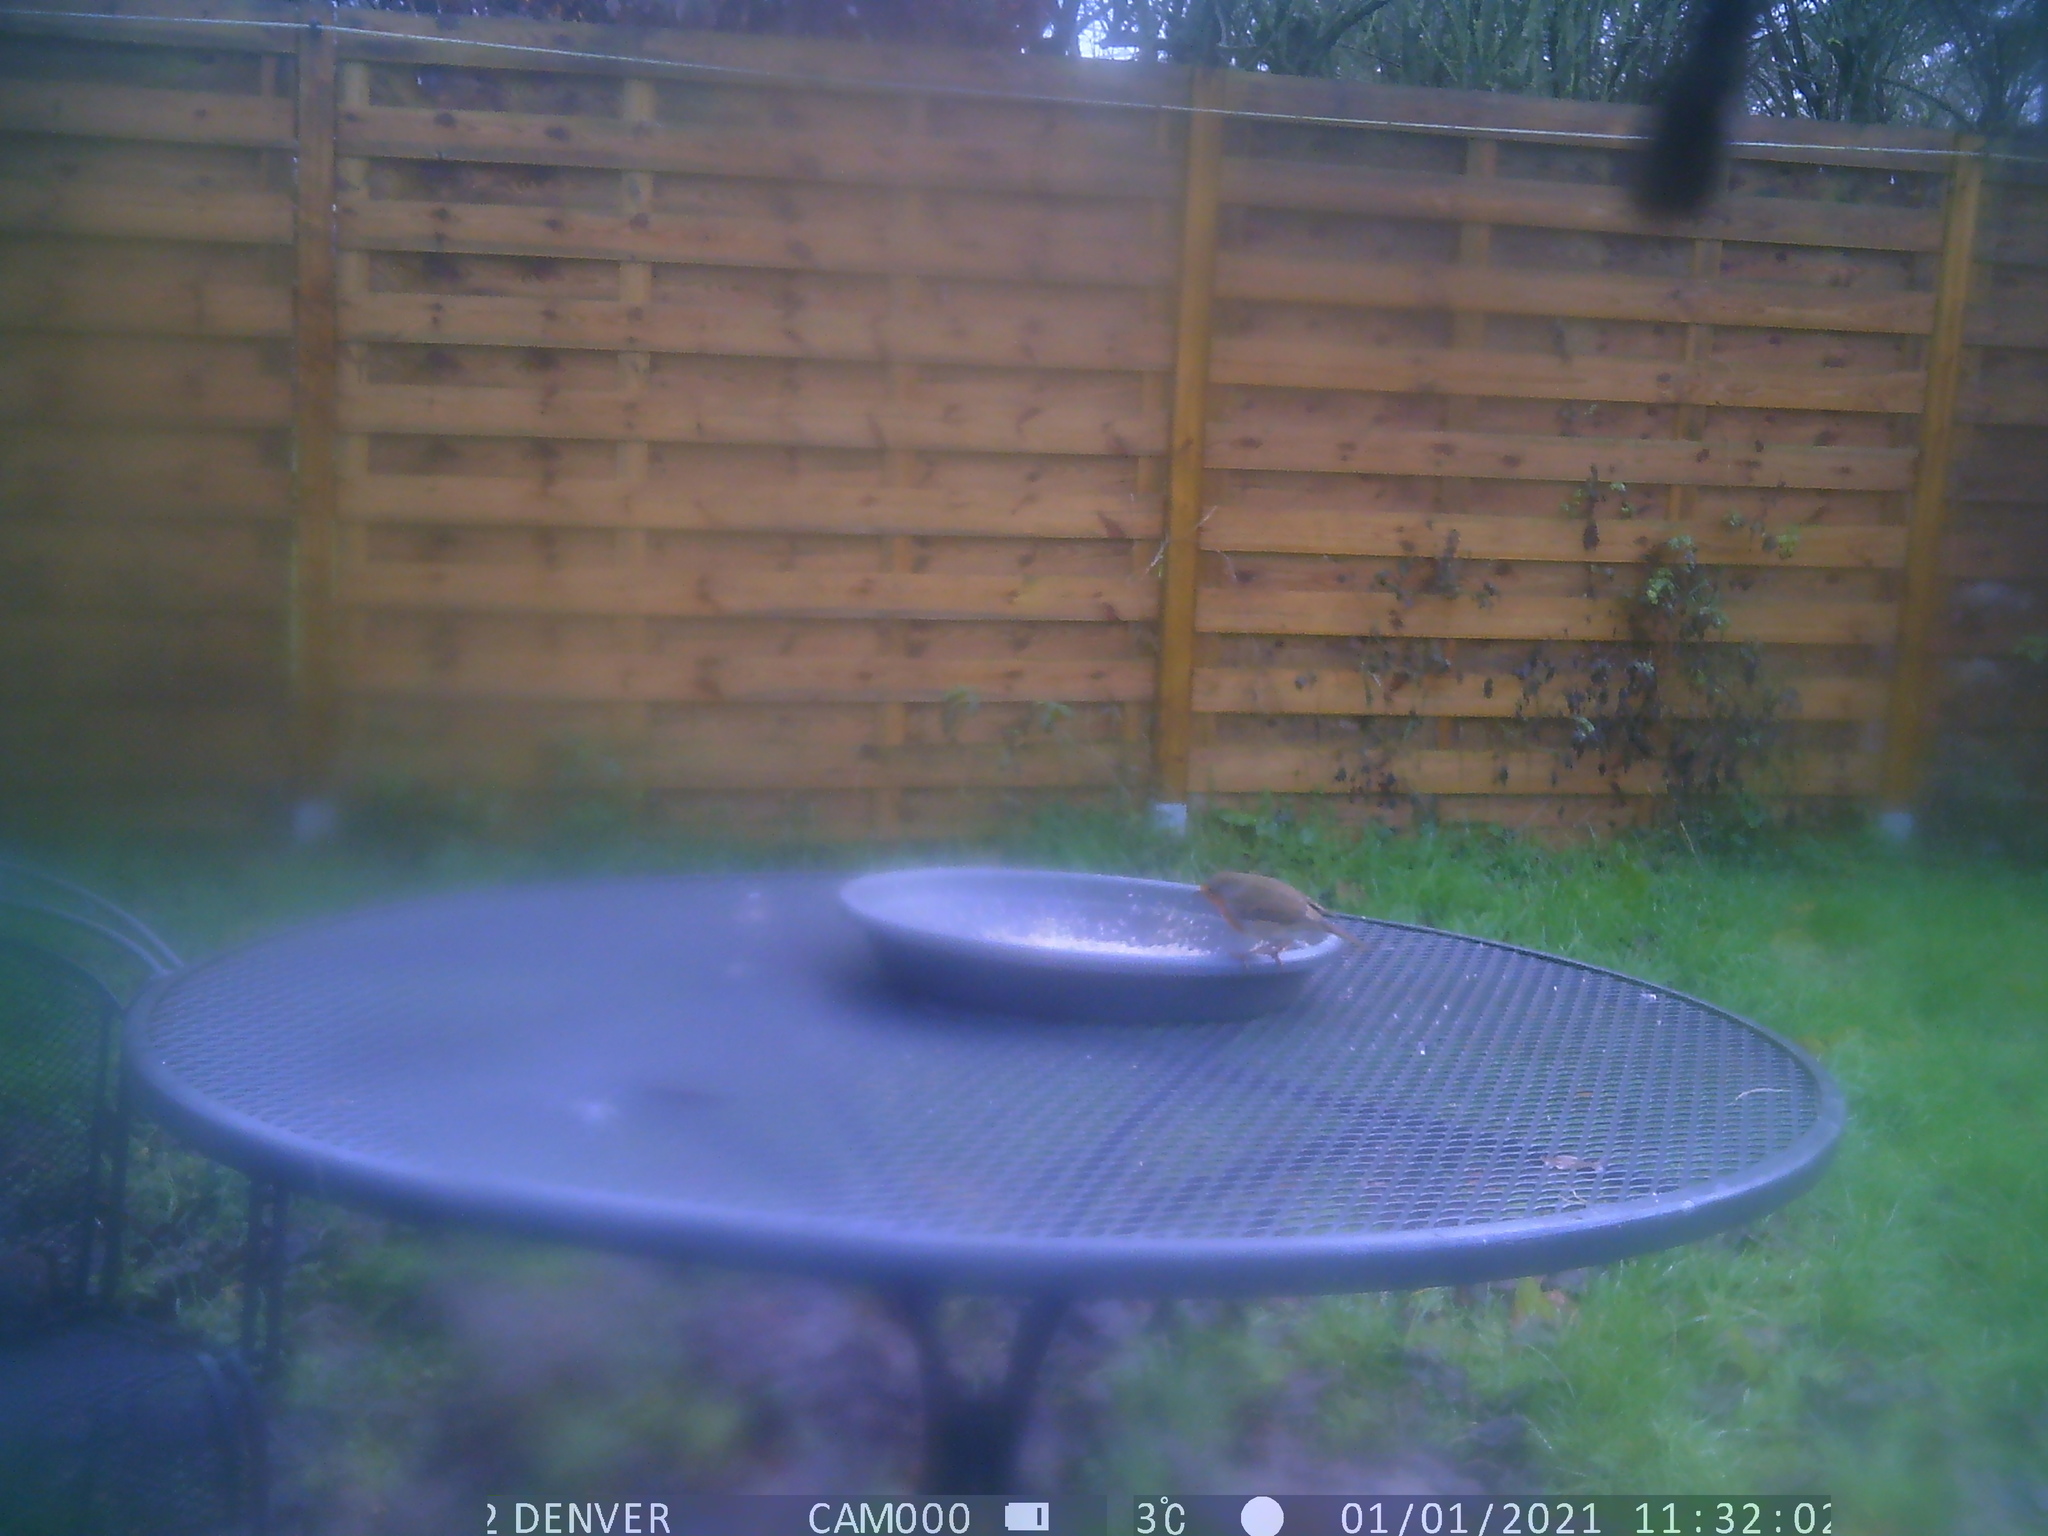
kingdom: Animalia
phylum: Chordata
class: Aves
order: Passeriformes
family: Muscicapidae
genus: Erithacus
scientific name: Erithacus rubecula
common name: European robin
